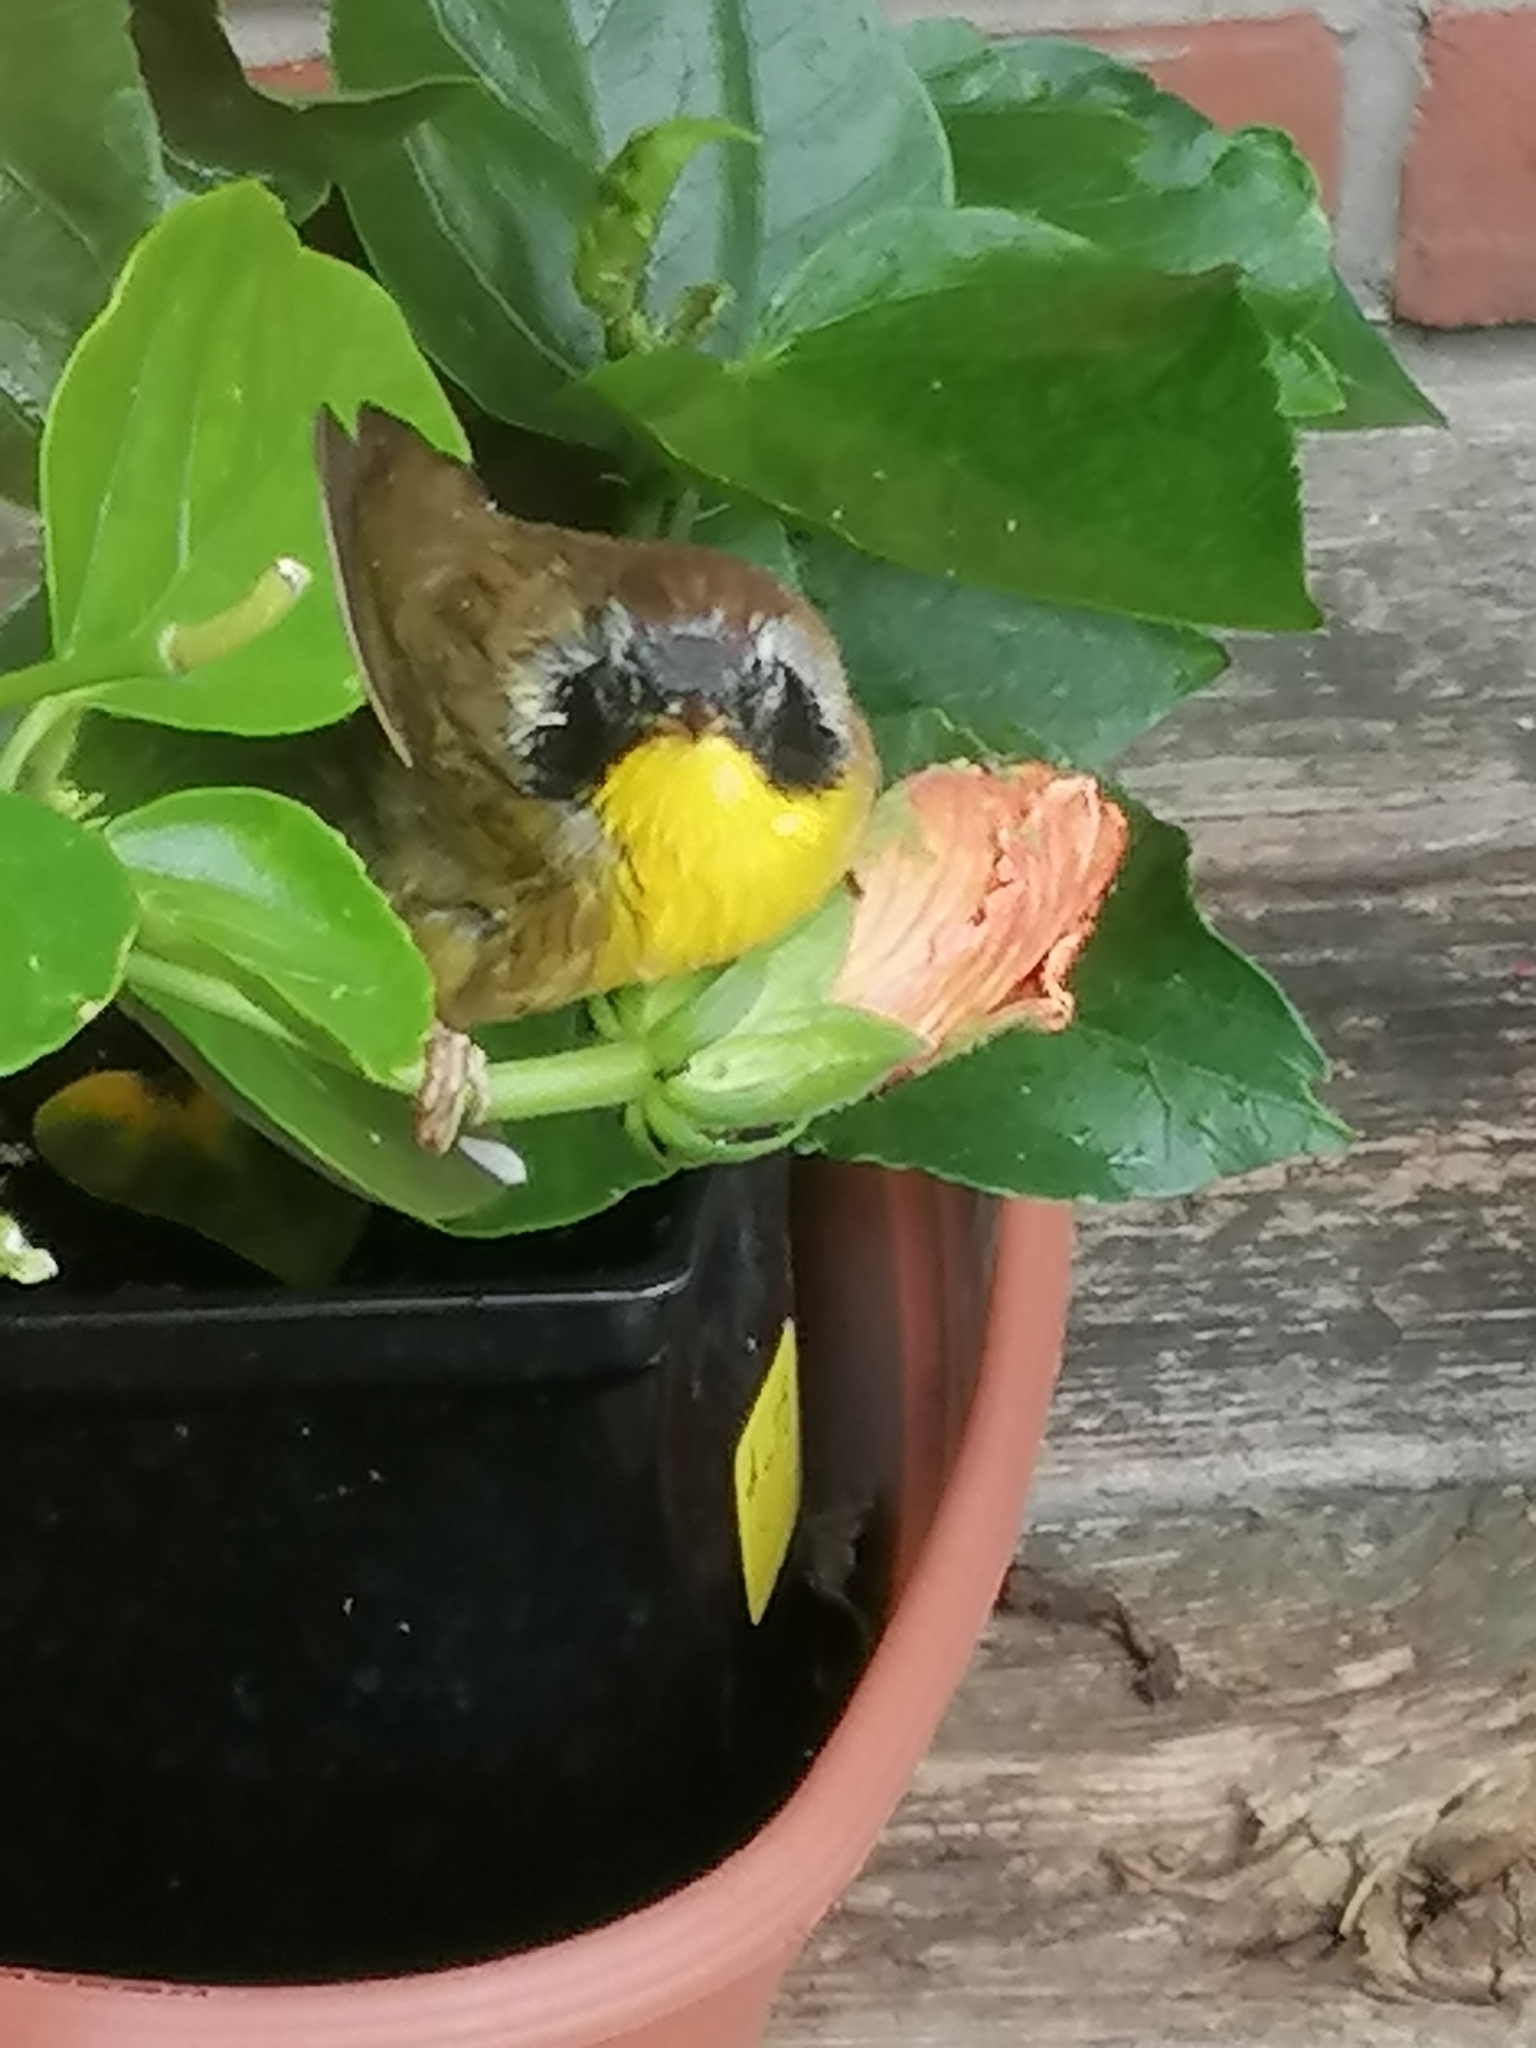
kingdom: Animalia
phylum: Chordata
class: Aves
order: Passeriformes
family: Parulidae
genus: Geothlypis
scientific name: Geothlypis trichas
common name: Common yellowthroat
